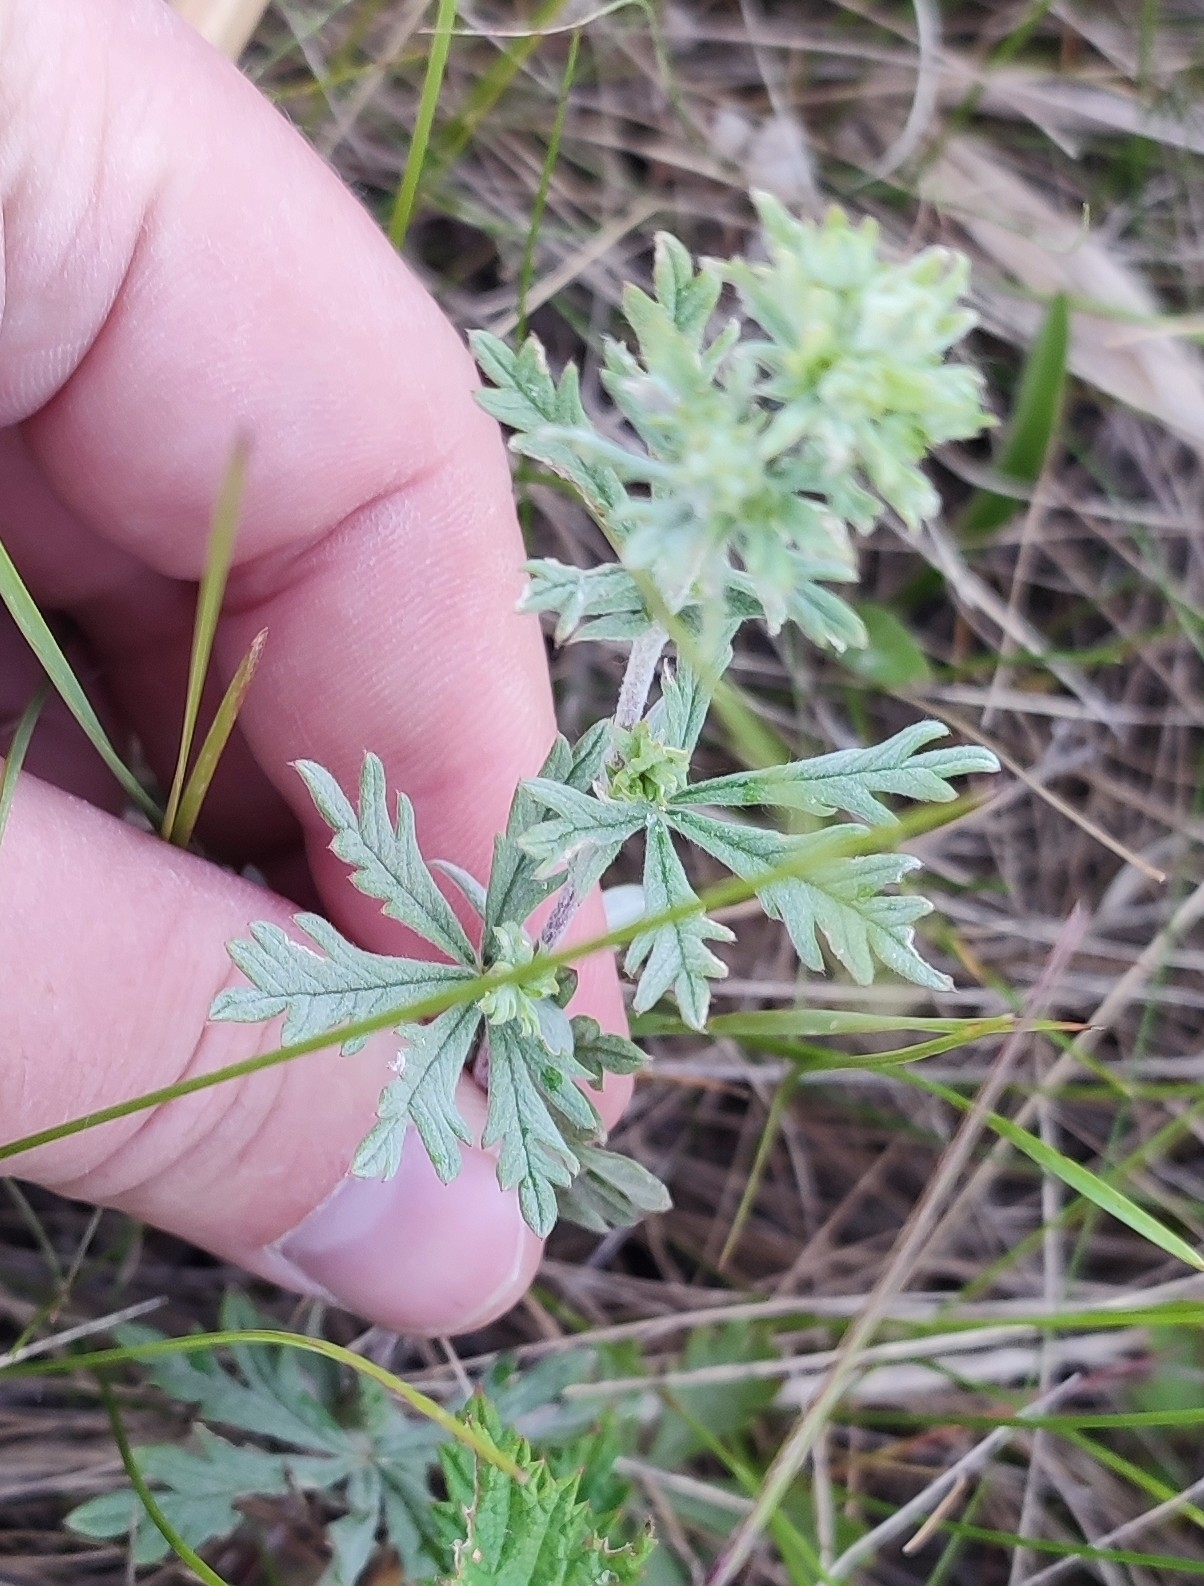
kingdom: Plantae
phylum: Tracheophyta
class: Magnoliopsida
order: Rosales
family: Rosaceae
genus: Potentilla
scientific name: Potentilla argentea
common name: Hoary cinquefoil
